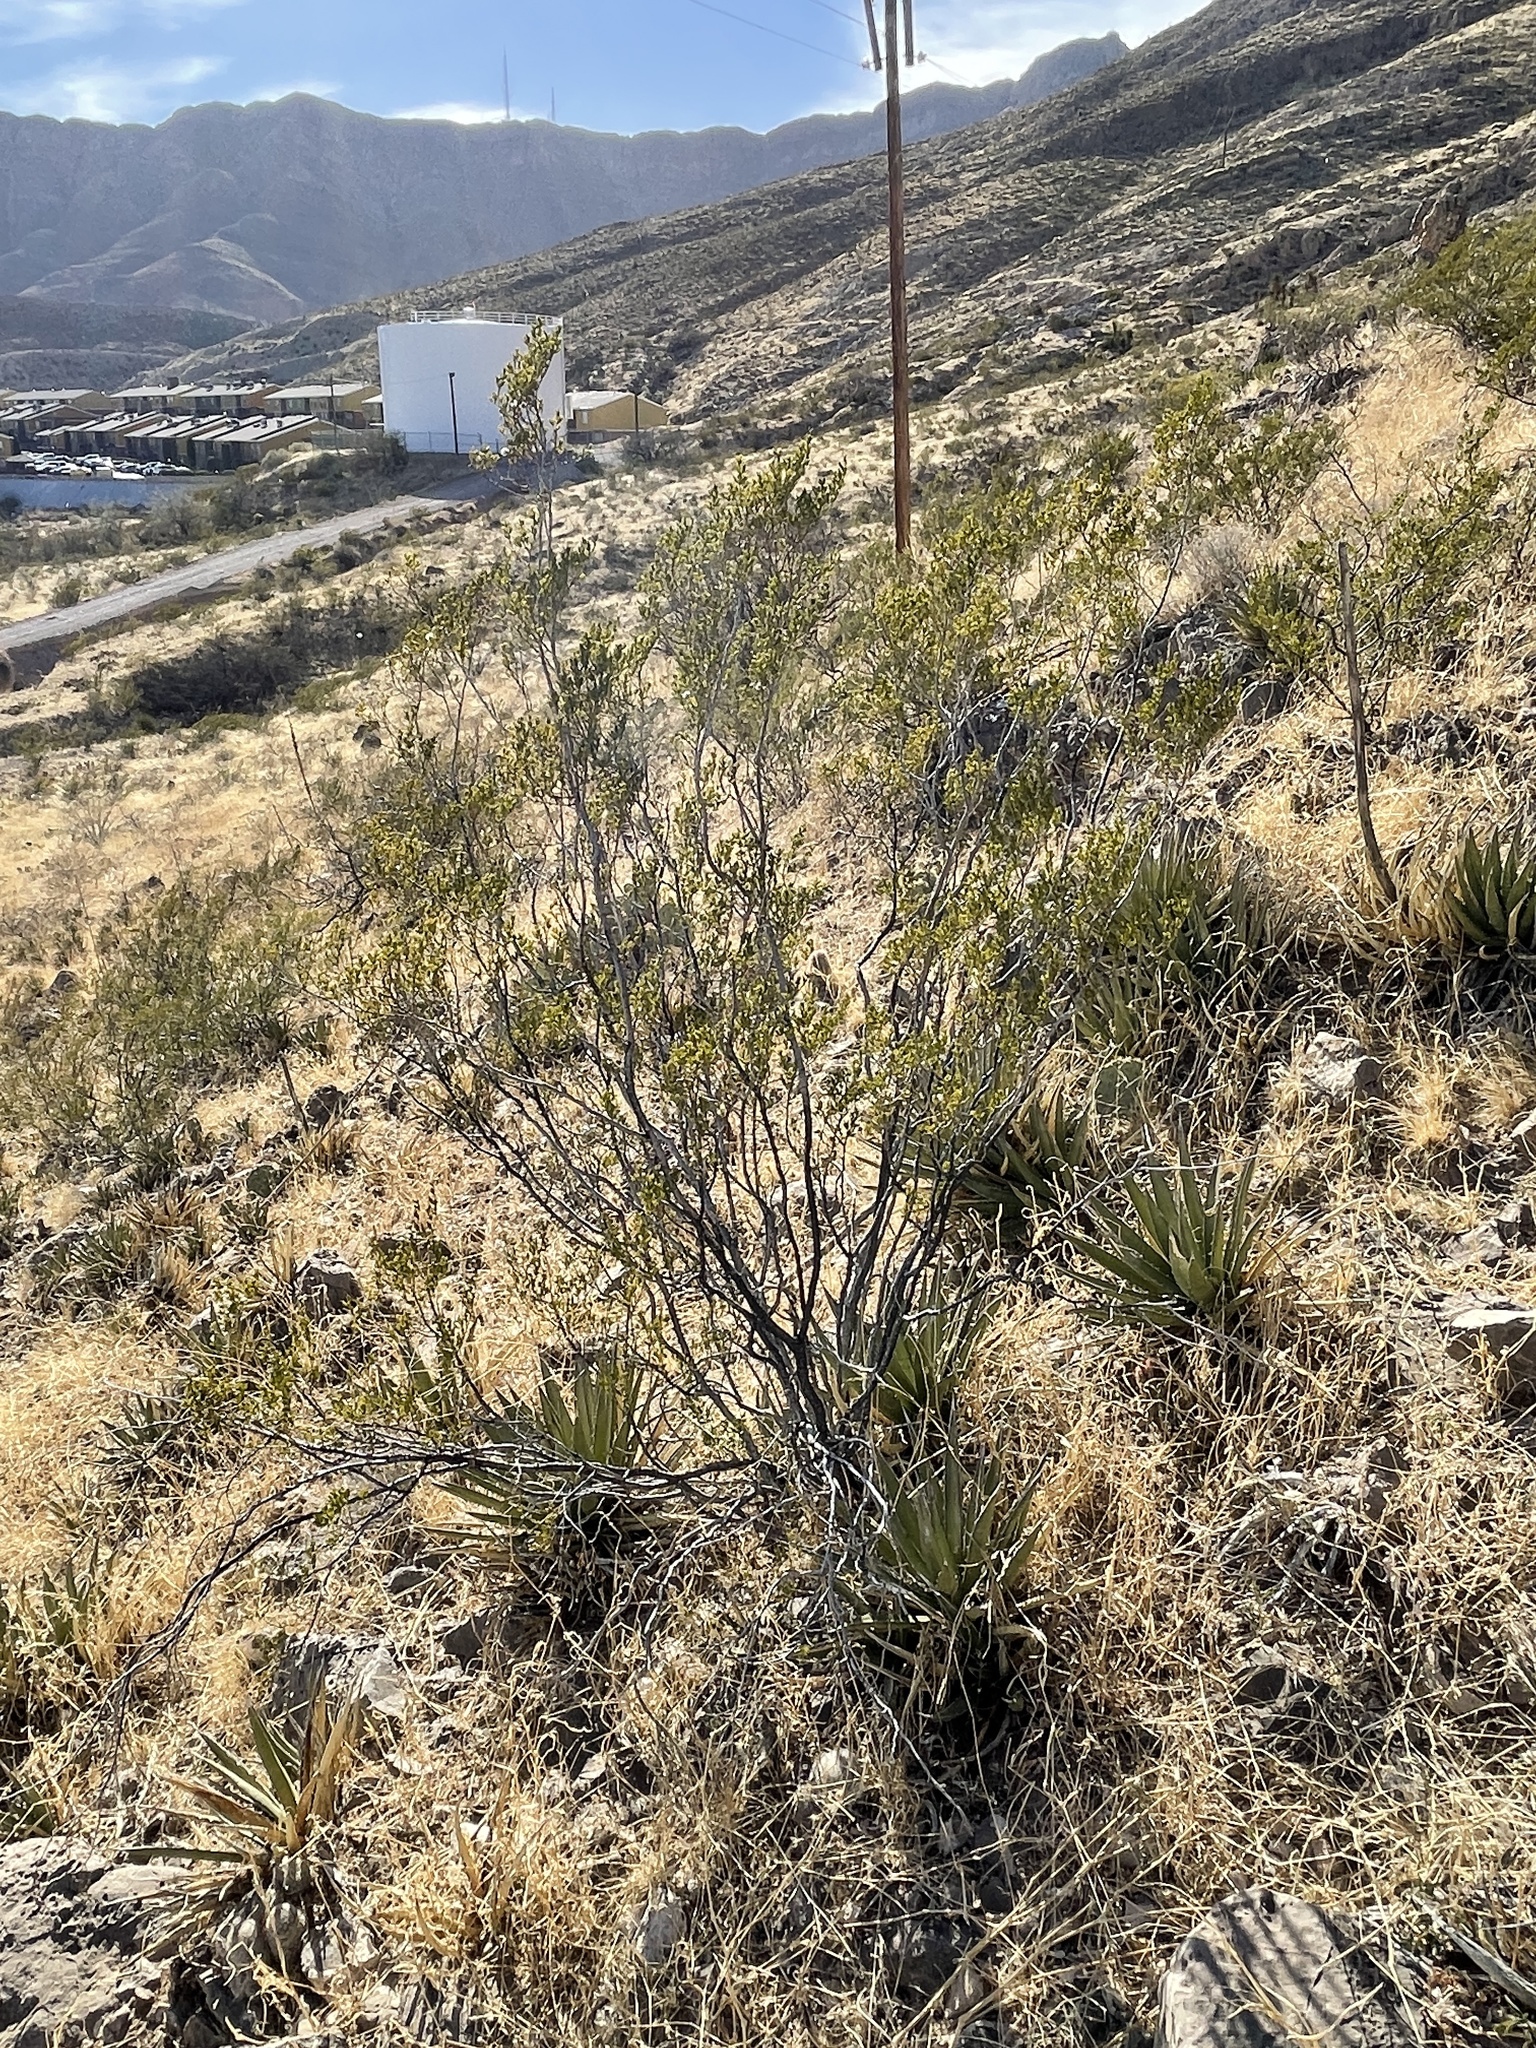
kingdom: Plantae
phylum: Tracheophyta
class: Magnoliopsida
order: Zygophyllales
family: Zygophyllaceae
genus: Larrea
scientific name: Larrea tridentata
